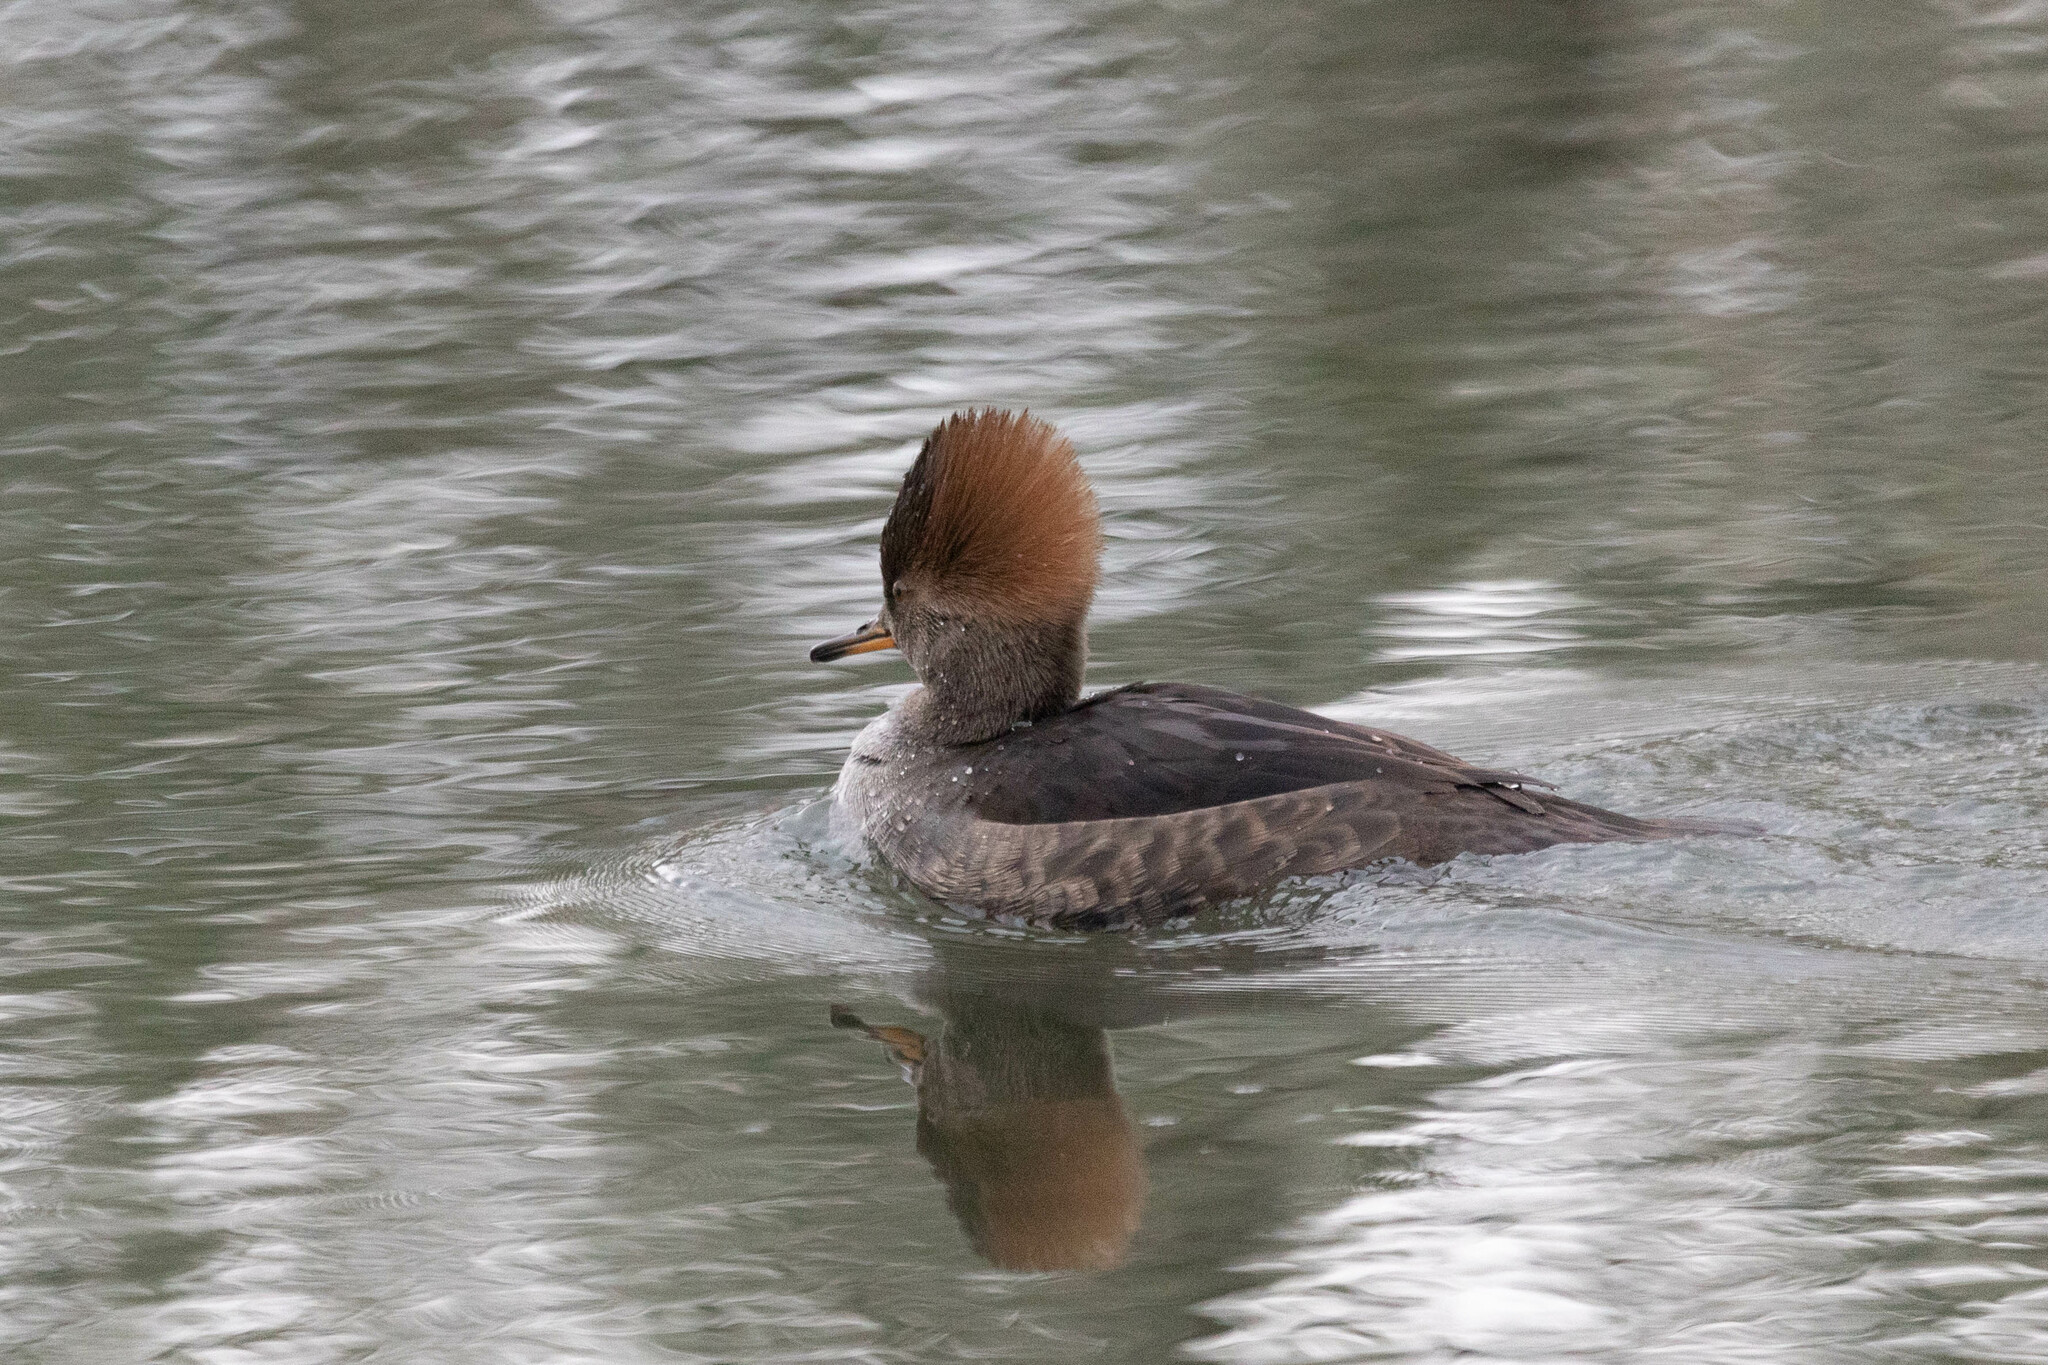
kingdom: Animalia
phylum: Chordata
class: Aves
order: Anseriformes
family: Anatidae
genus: Lophodytes
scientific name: Lophodytes cucullatus
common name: Hooded merganser
